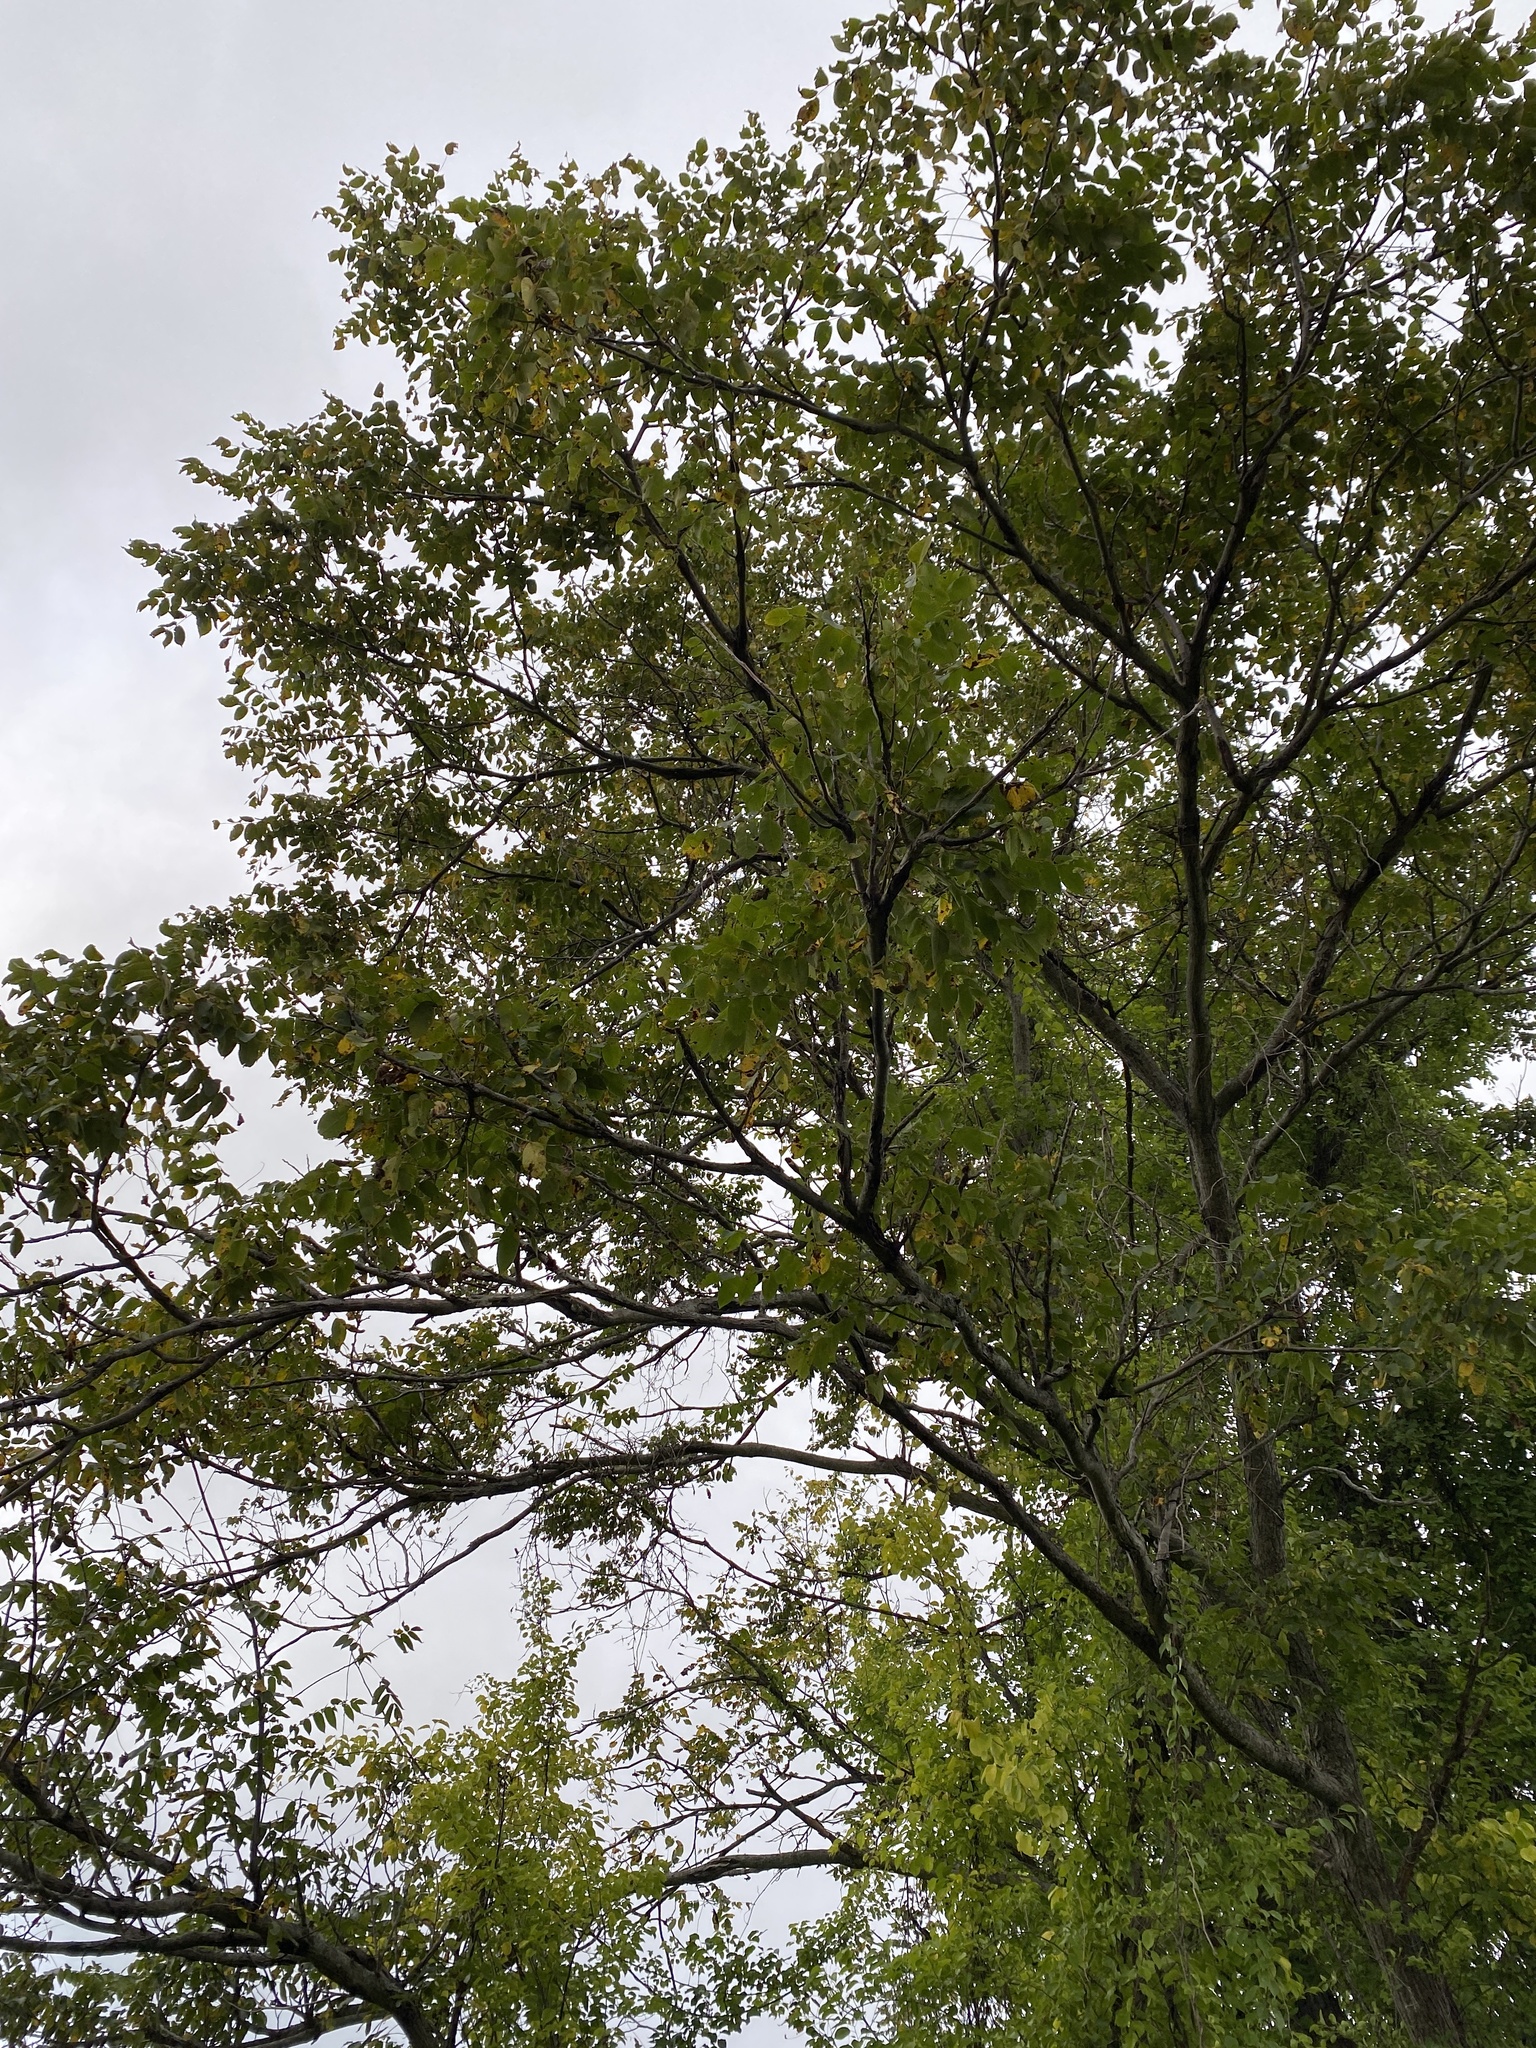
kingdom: Plantae
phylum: Tracheophyta
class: Magnoliopsida
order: Fagales
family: Juglandaceae
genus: Juglans
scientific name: Juglans cinerea
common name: Butternut
